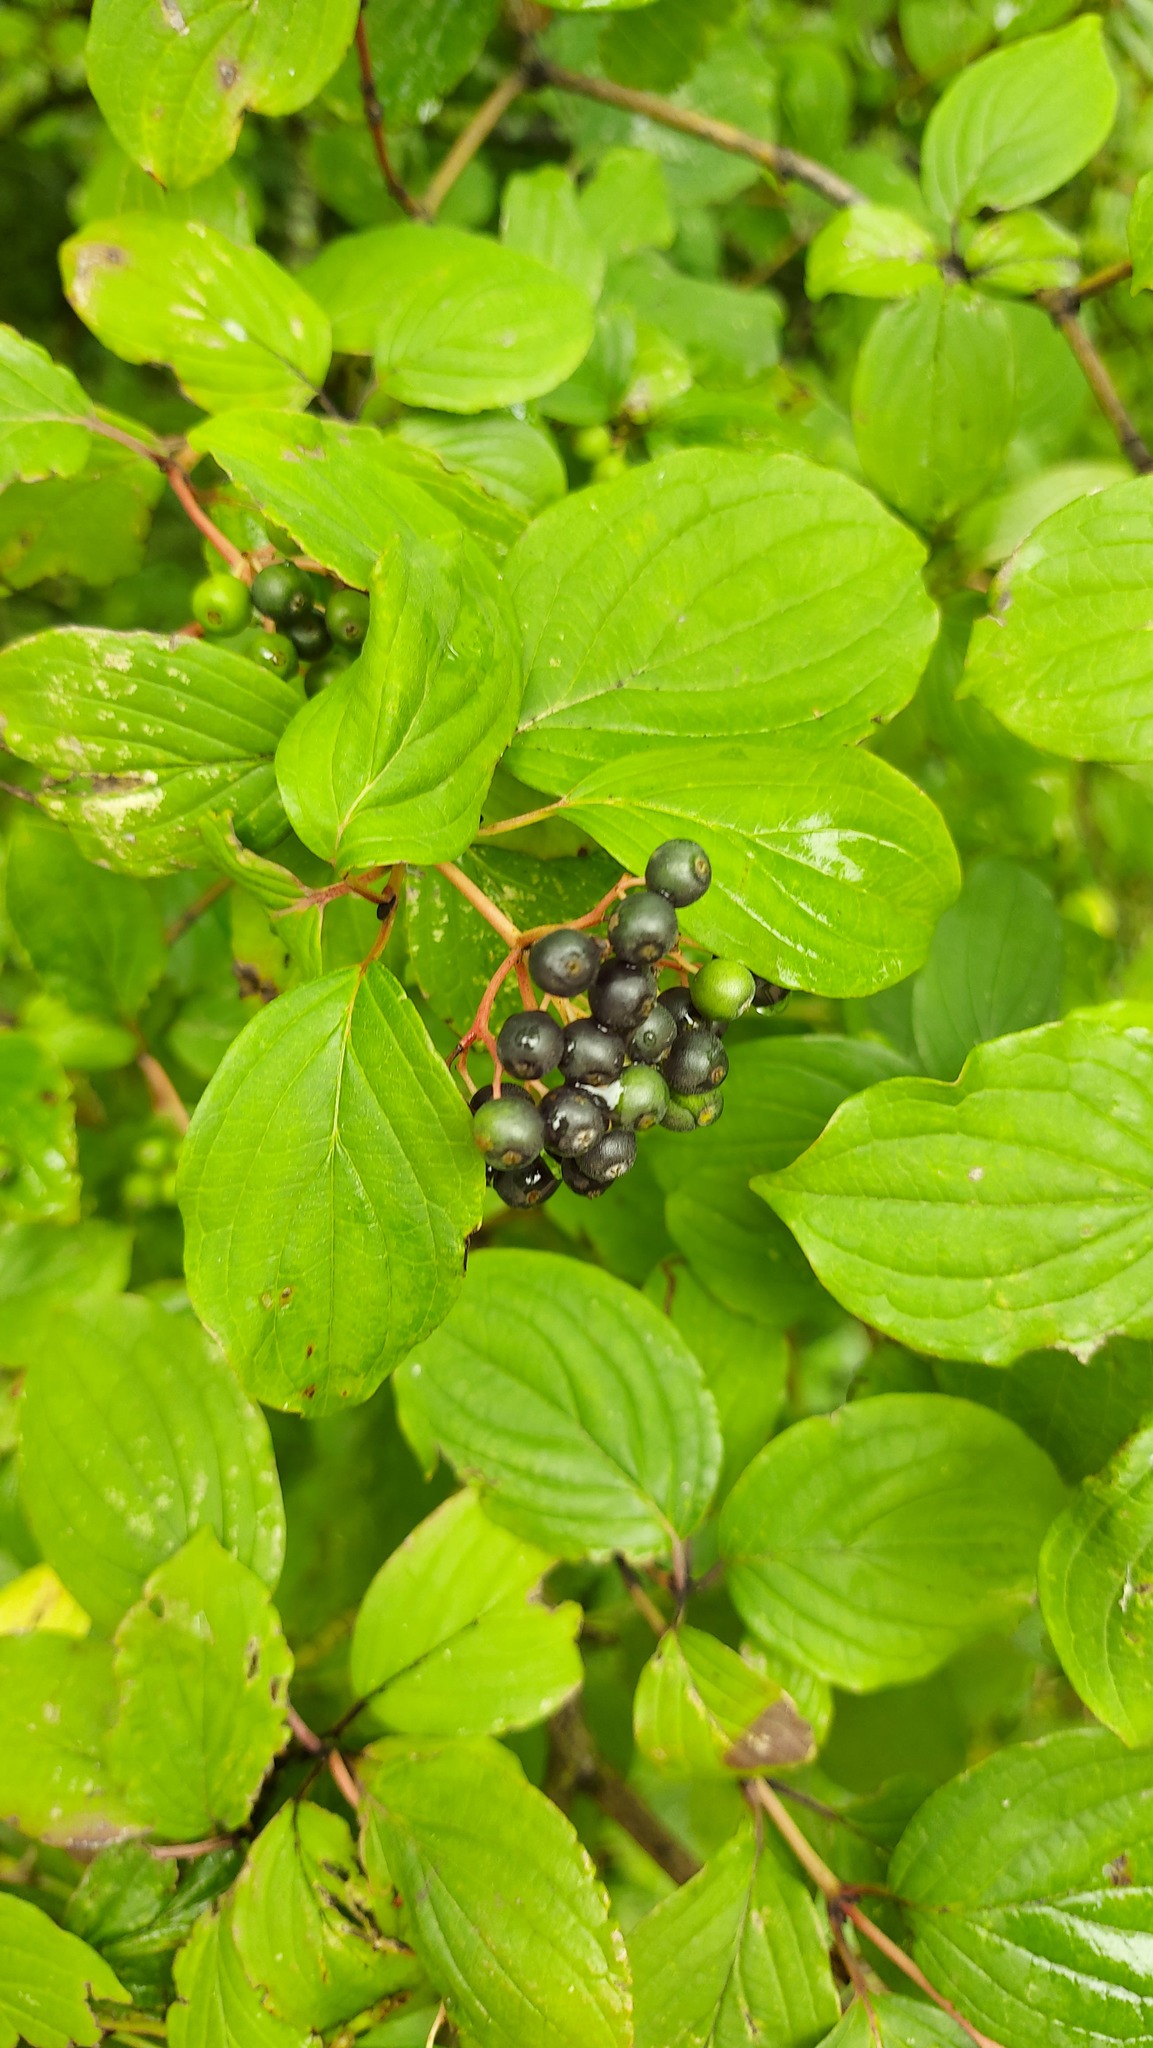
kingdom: Plantae
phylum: Tracheophyta
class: Magnoliopsida
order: Cornales
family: Cornaceae
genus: Cornus
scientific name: Cornus sanguinea
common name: Dogwood
